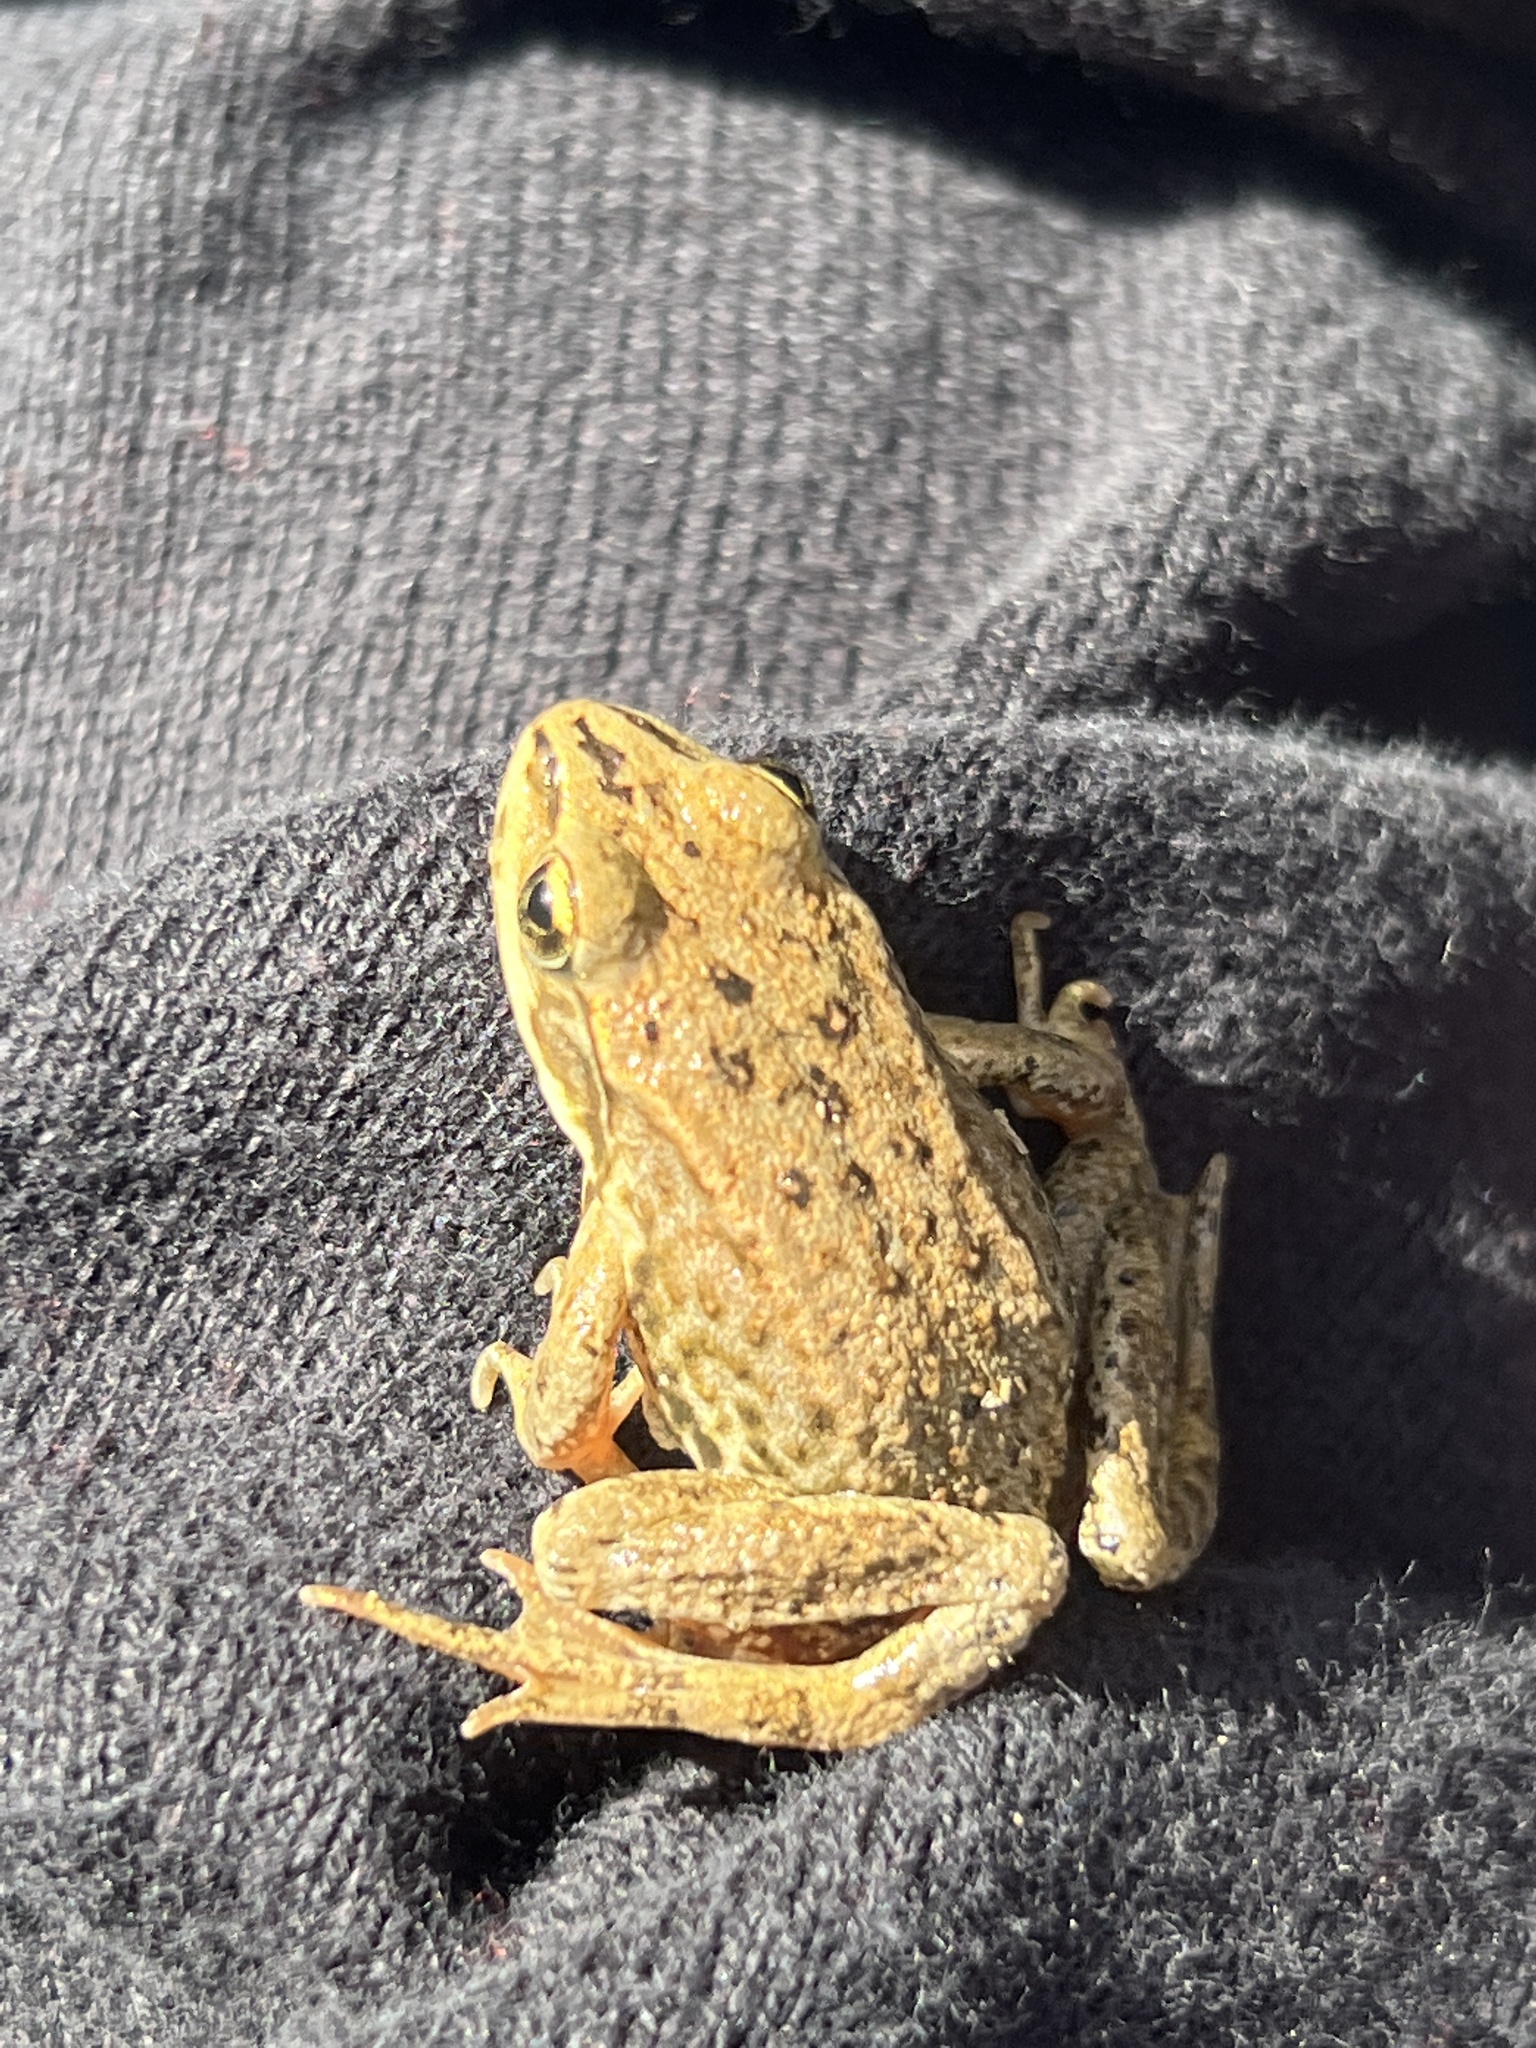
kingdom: Animalia
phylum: Chordata
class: Amphibia
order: Anura
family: Ranidae
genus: Rana
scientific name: Rana luteiventris
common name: Columbia spotted frog
